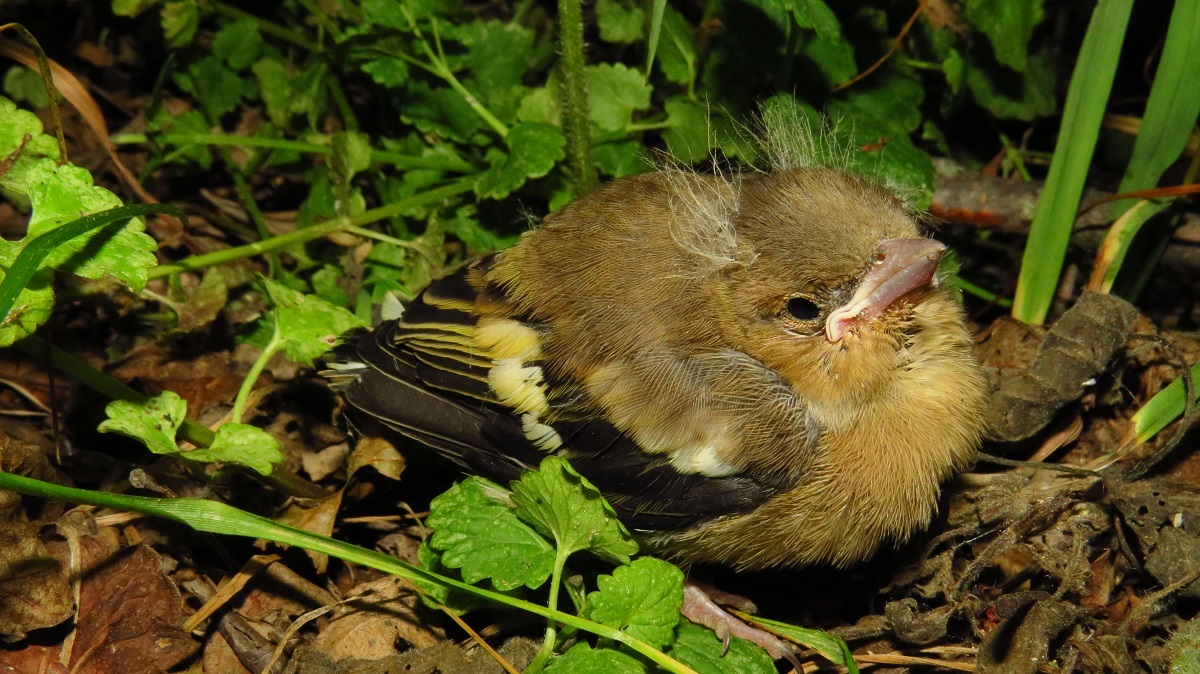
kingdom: Animalia
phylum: Chordata
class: Aves
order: Passeriformes
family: Fringillidae
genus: Fringilla
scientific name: Fringilla coelebs
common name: Common chaffinch
